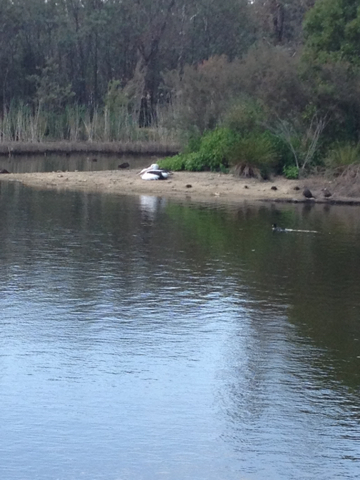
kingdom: Animalia
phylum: Chordata
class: Aves
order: Pelecaniformes
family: Pelecanidae
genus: Pelecanus
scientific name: Pelecanus conspicillatus
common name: Australian pelican
